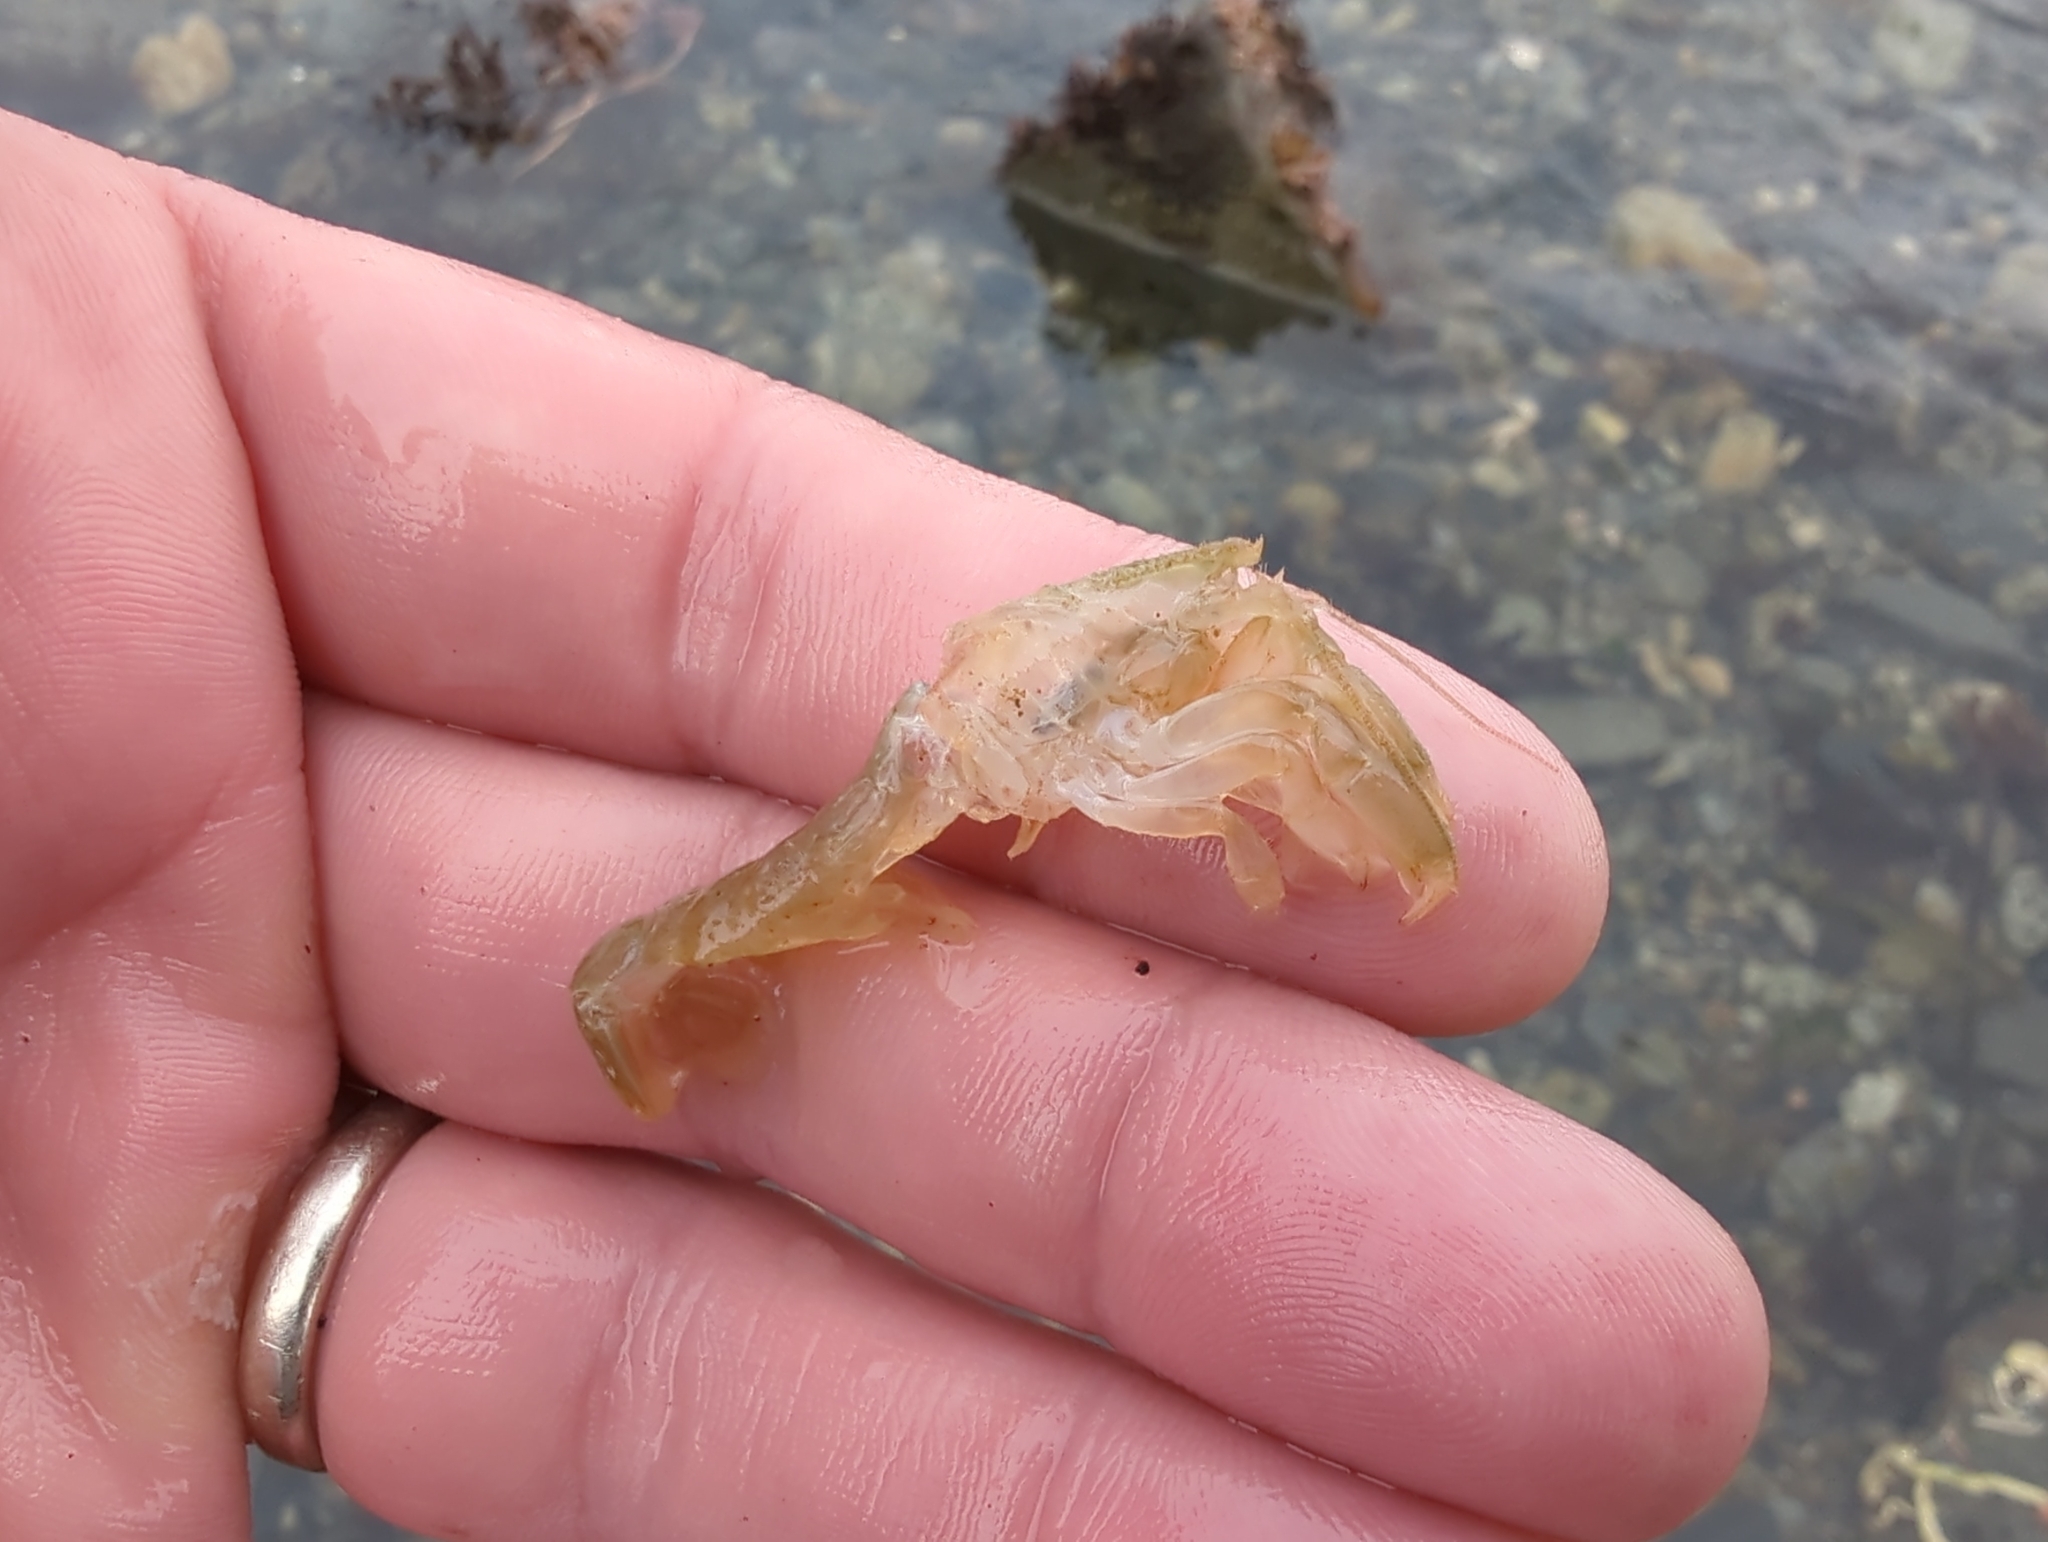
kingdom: Animalia
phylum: Arthropoda
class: Malacostraca
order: Decapoda
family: Upogebiidae
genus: Upogebia
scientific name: Upogebia pugettensis
